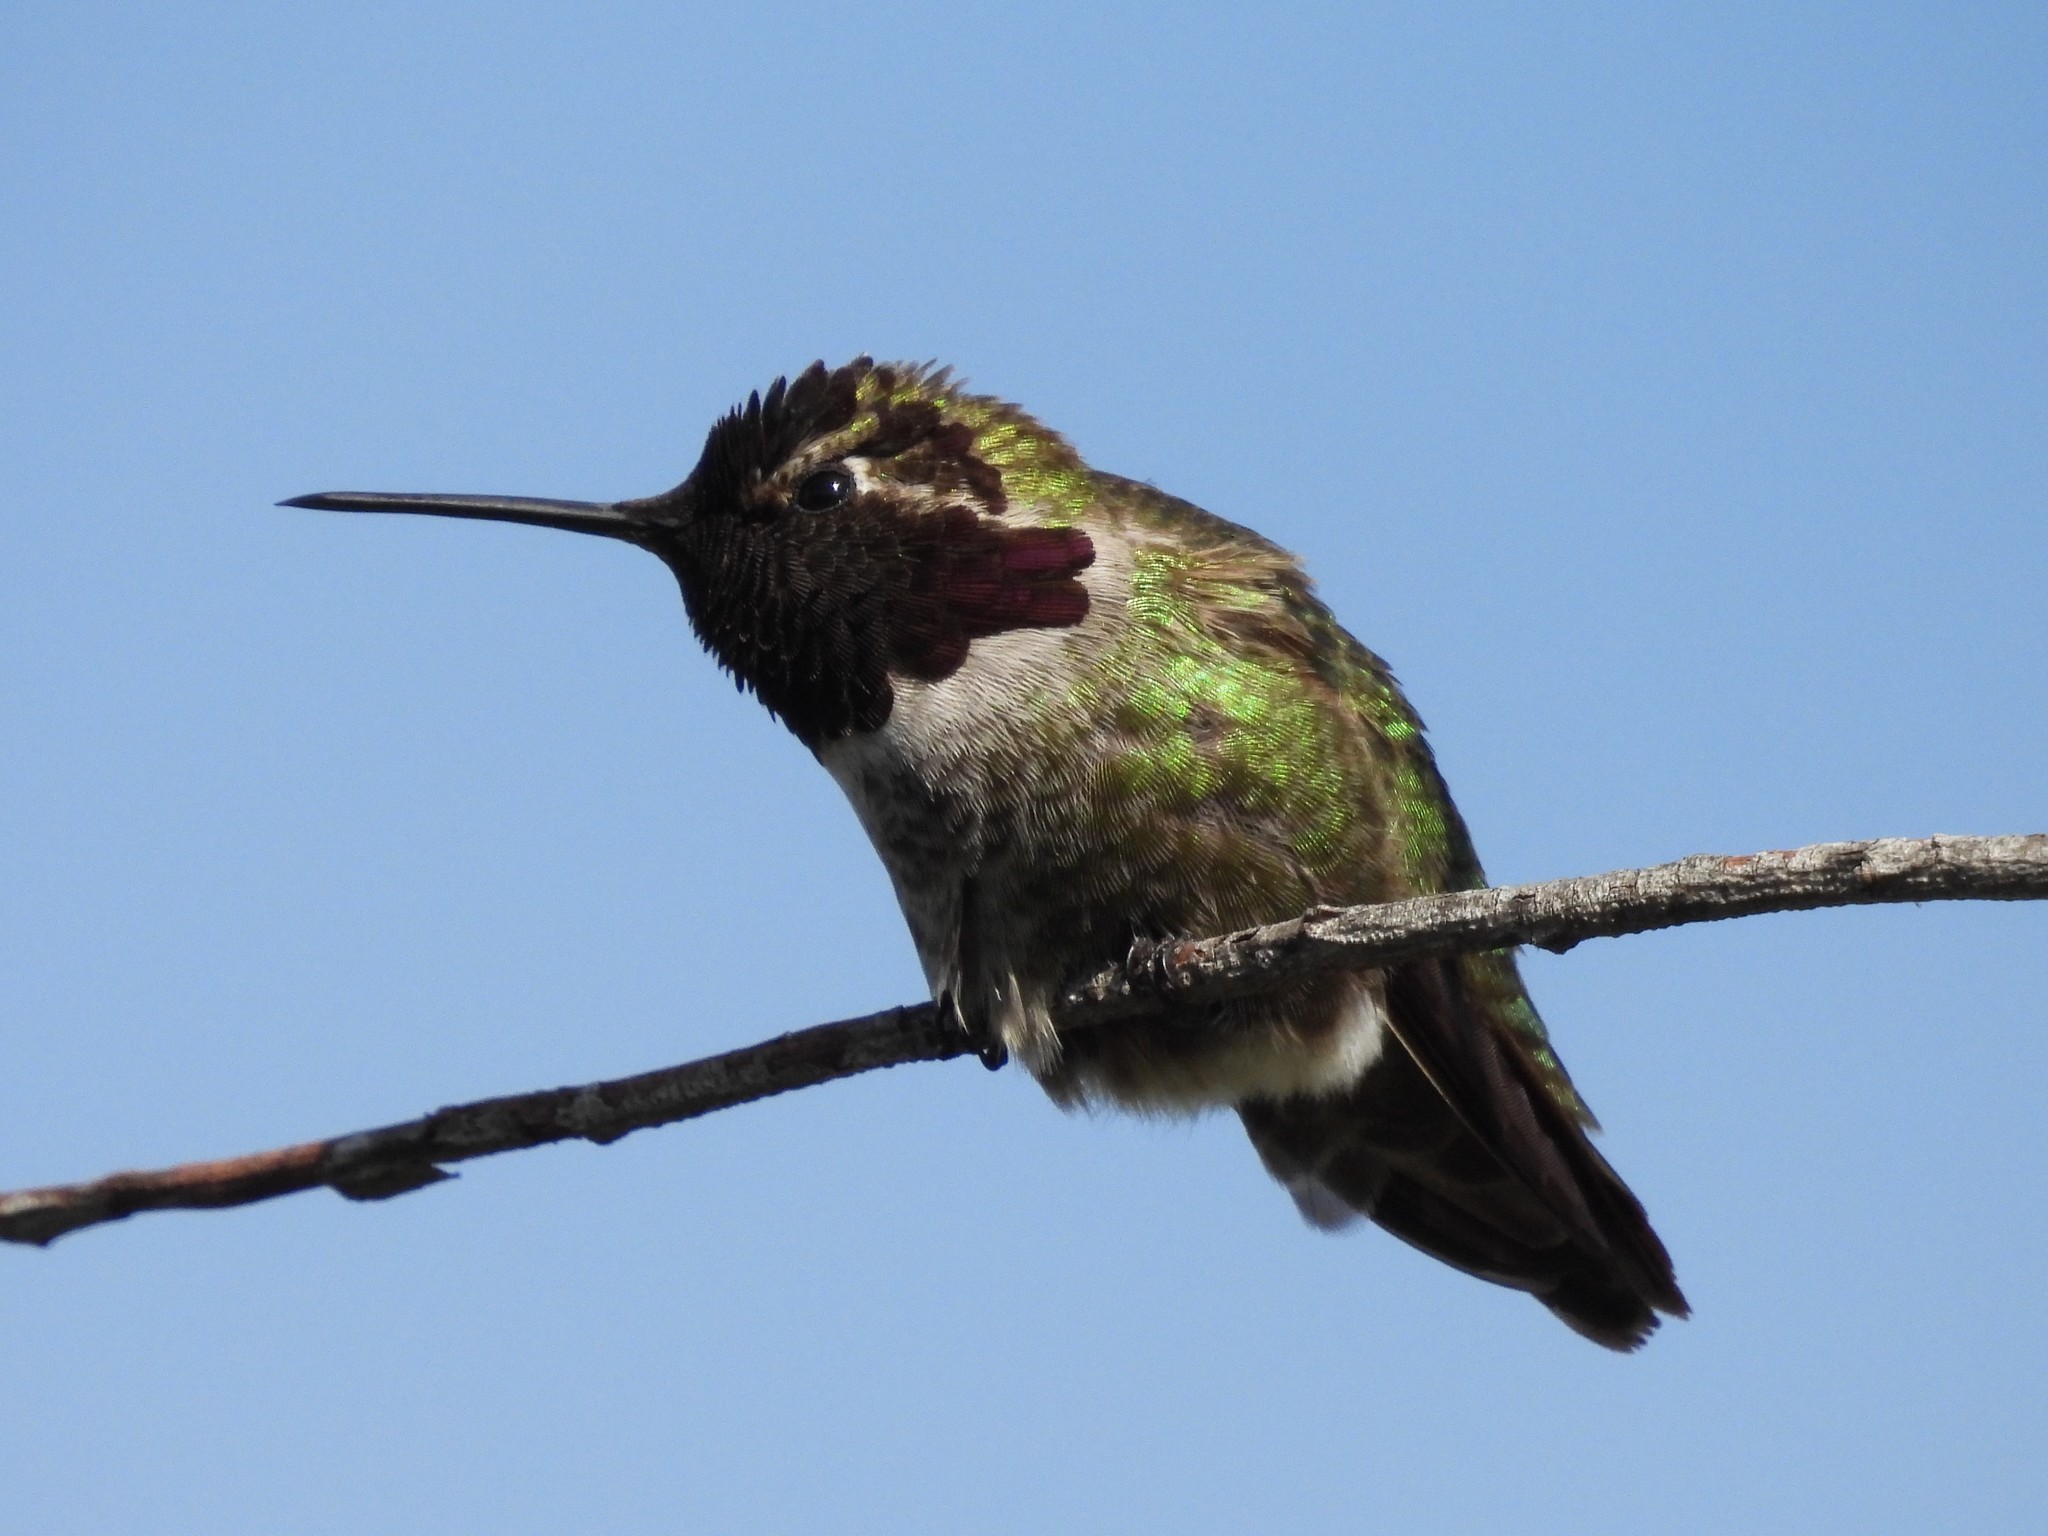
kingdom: Animalia
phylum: Chordata
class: Aves
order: Apodiformes
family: Trochilidae
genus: Calypte
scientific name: Calypte anna
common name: Anna's hummingbird
